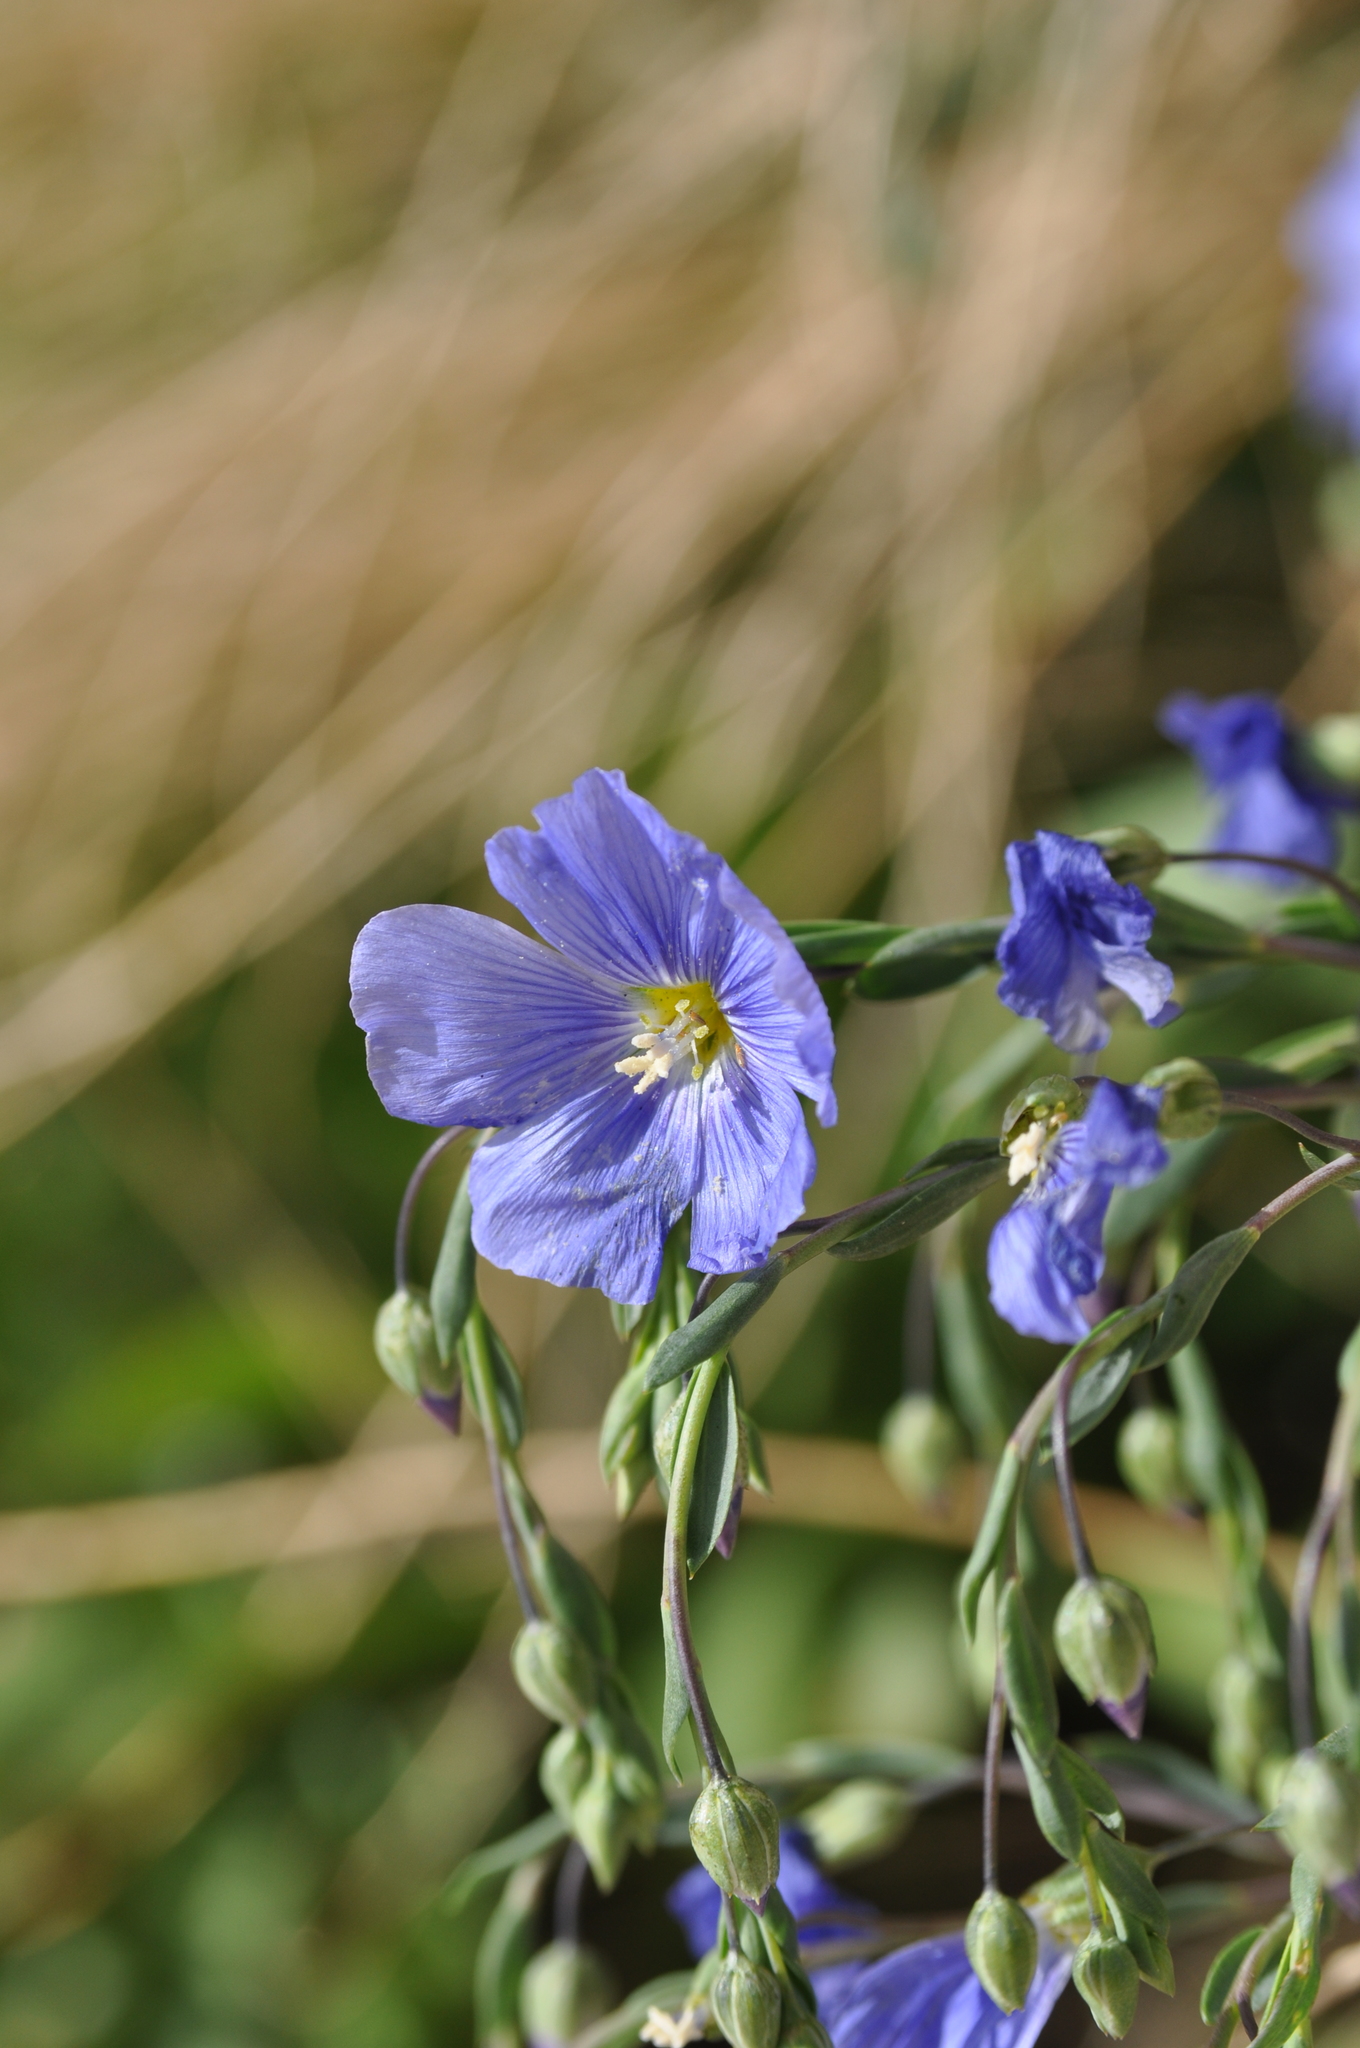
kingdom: Plantae
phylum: Tracheophyta
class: Magnoliopsida
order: Malpighiales
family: Linaceae
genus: Linum
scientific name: Linum lewisii
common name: Prairie flax
